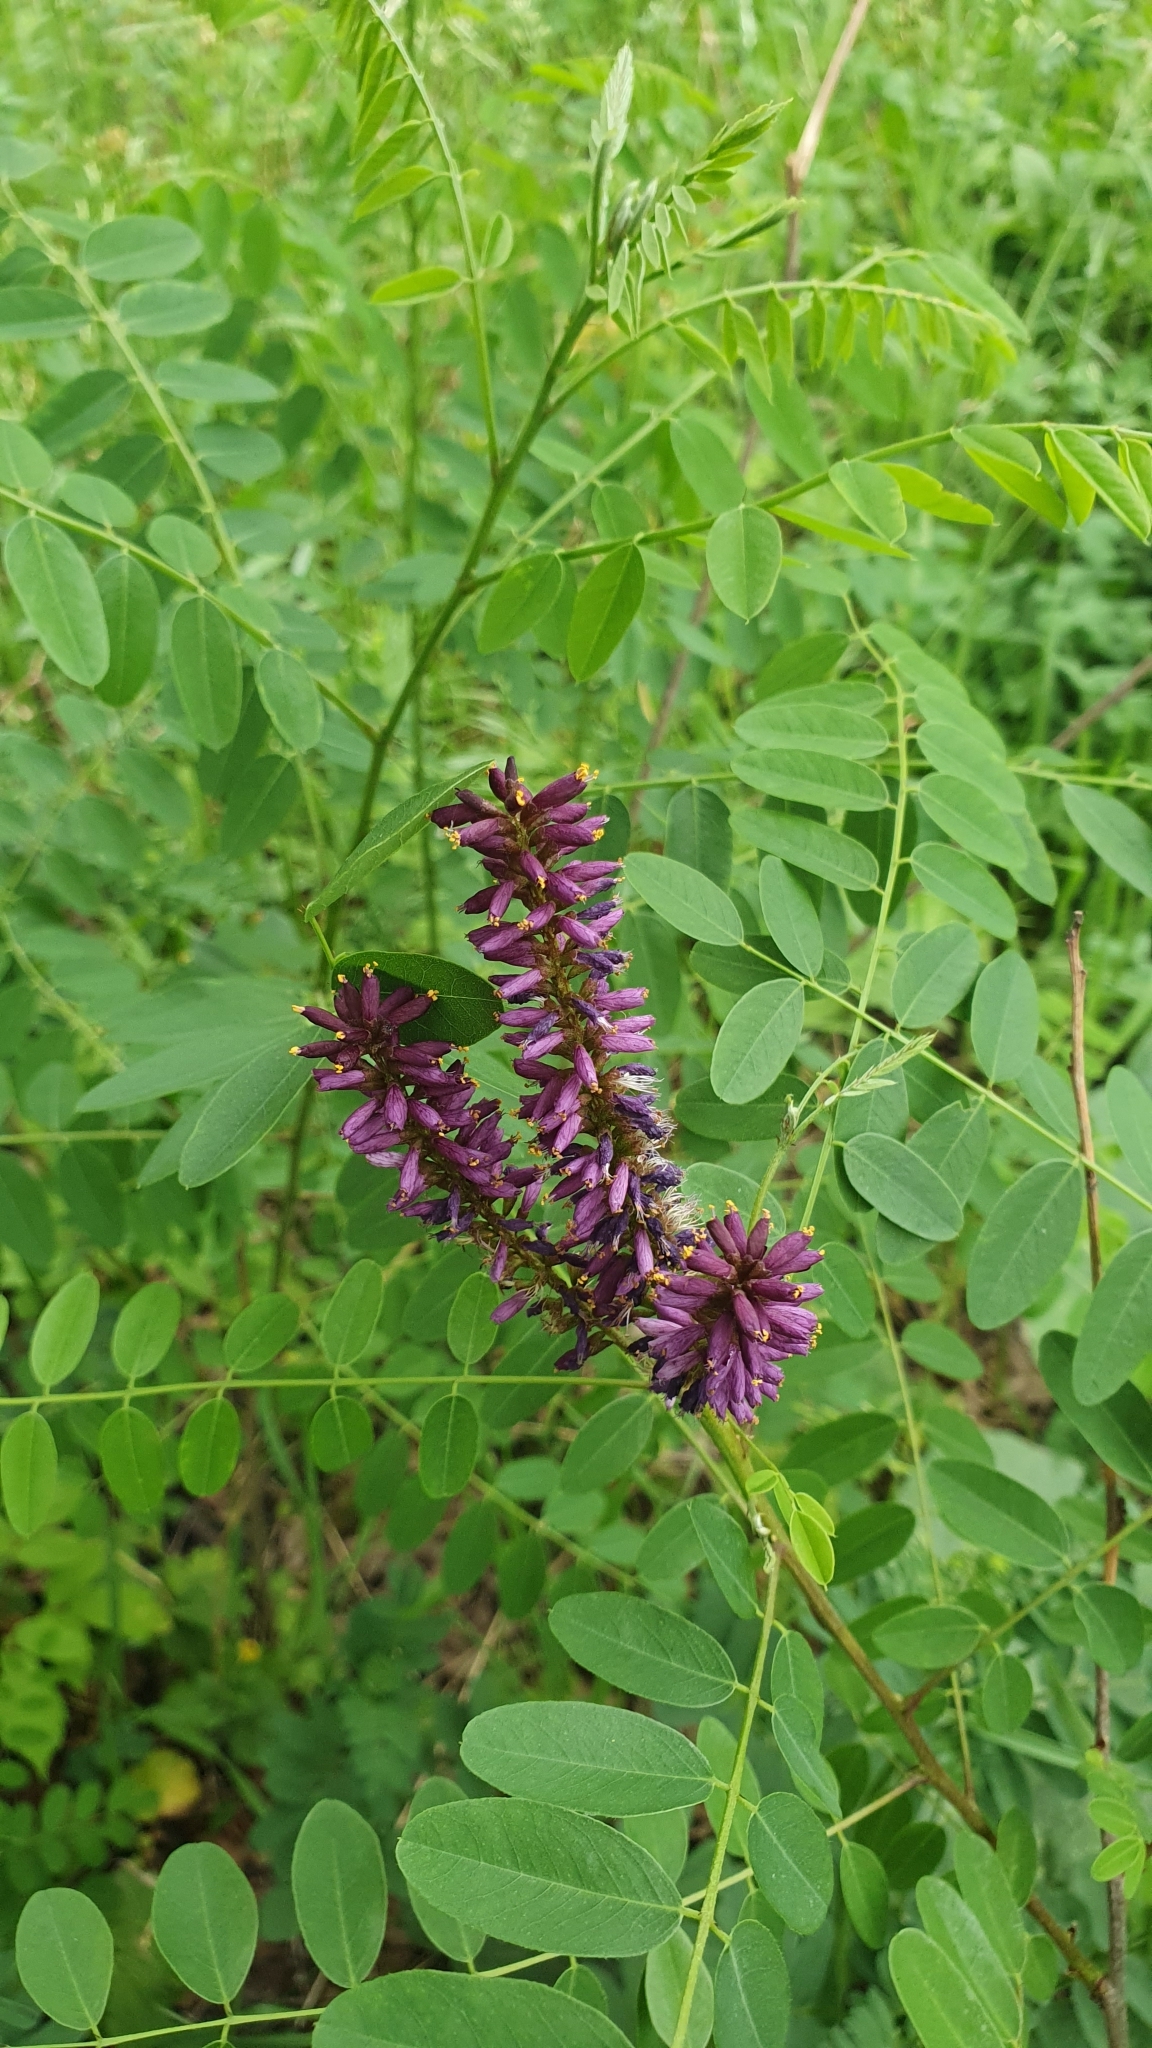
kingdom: Plantae
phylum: Tracheophyta
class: Magnoliopsida
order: Fabales
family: Fabaceae
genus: Amorpha
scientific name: Amorpha fruticosa
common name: False indigo
